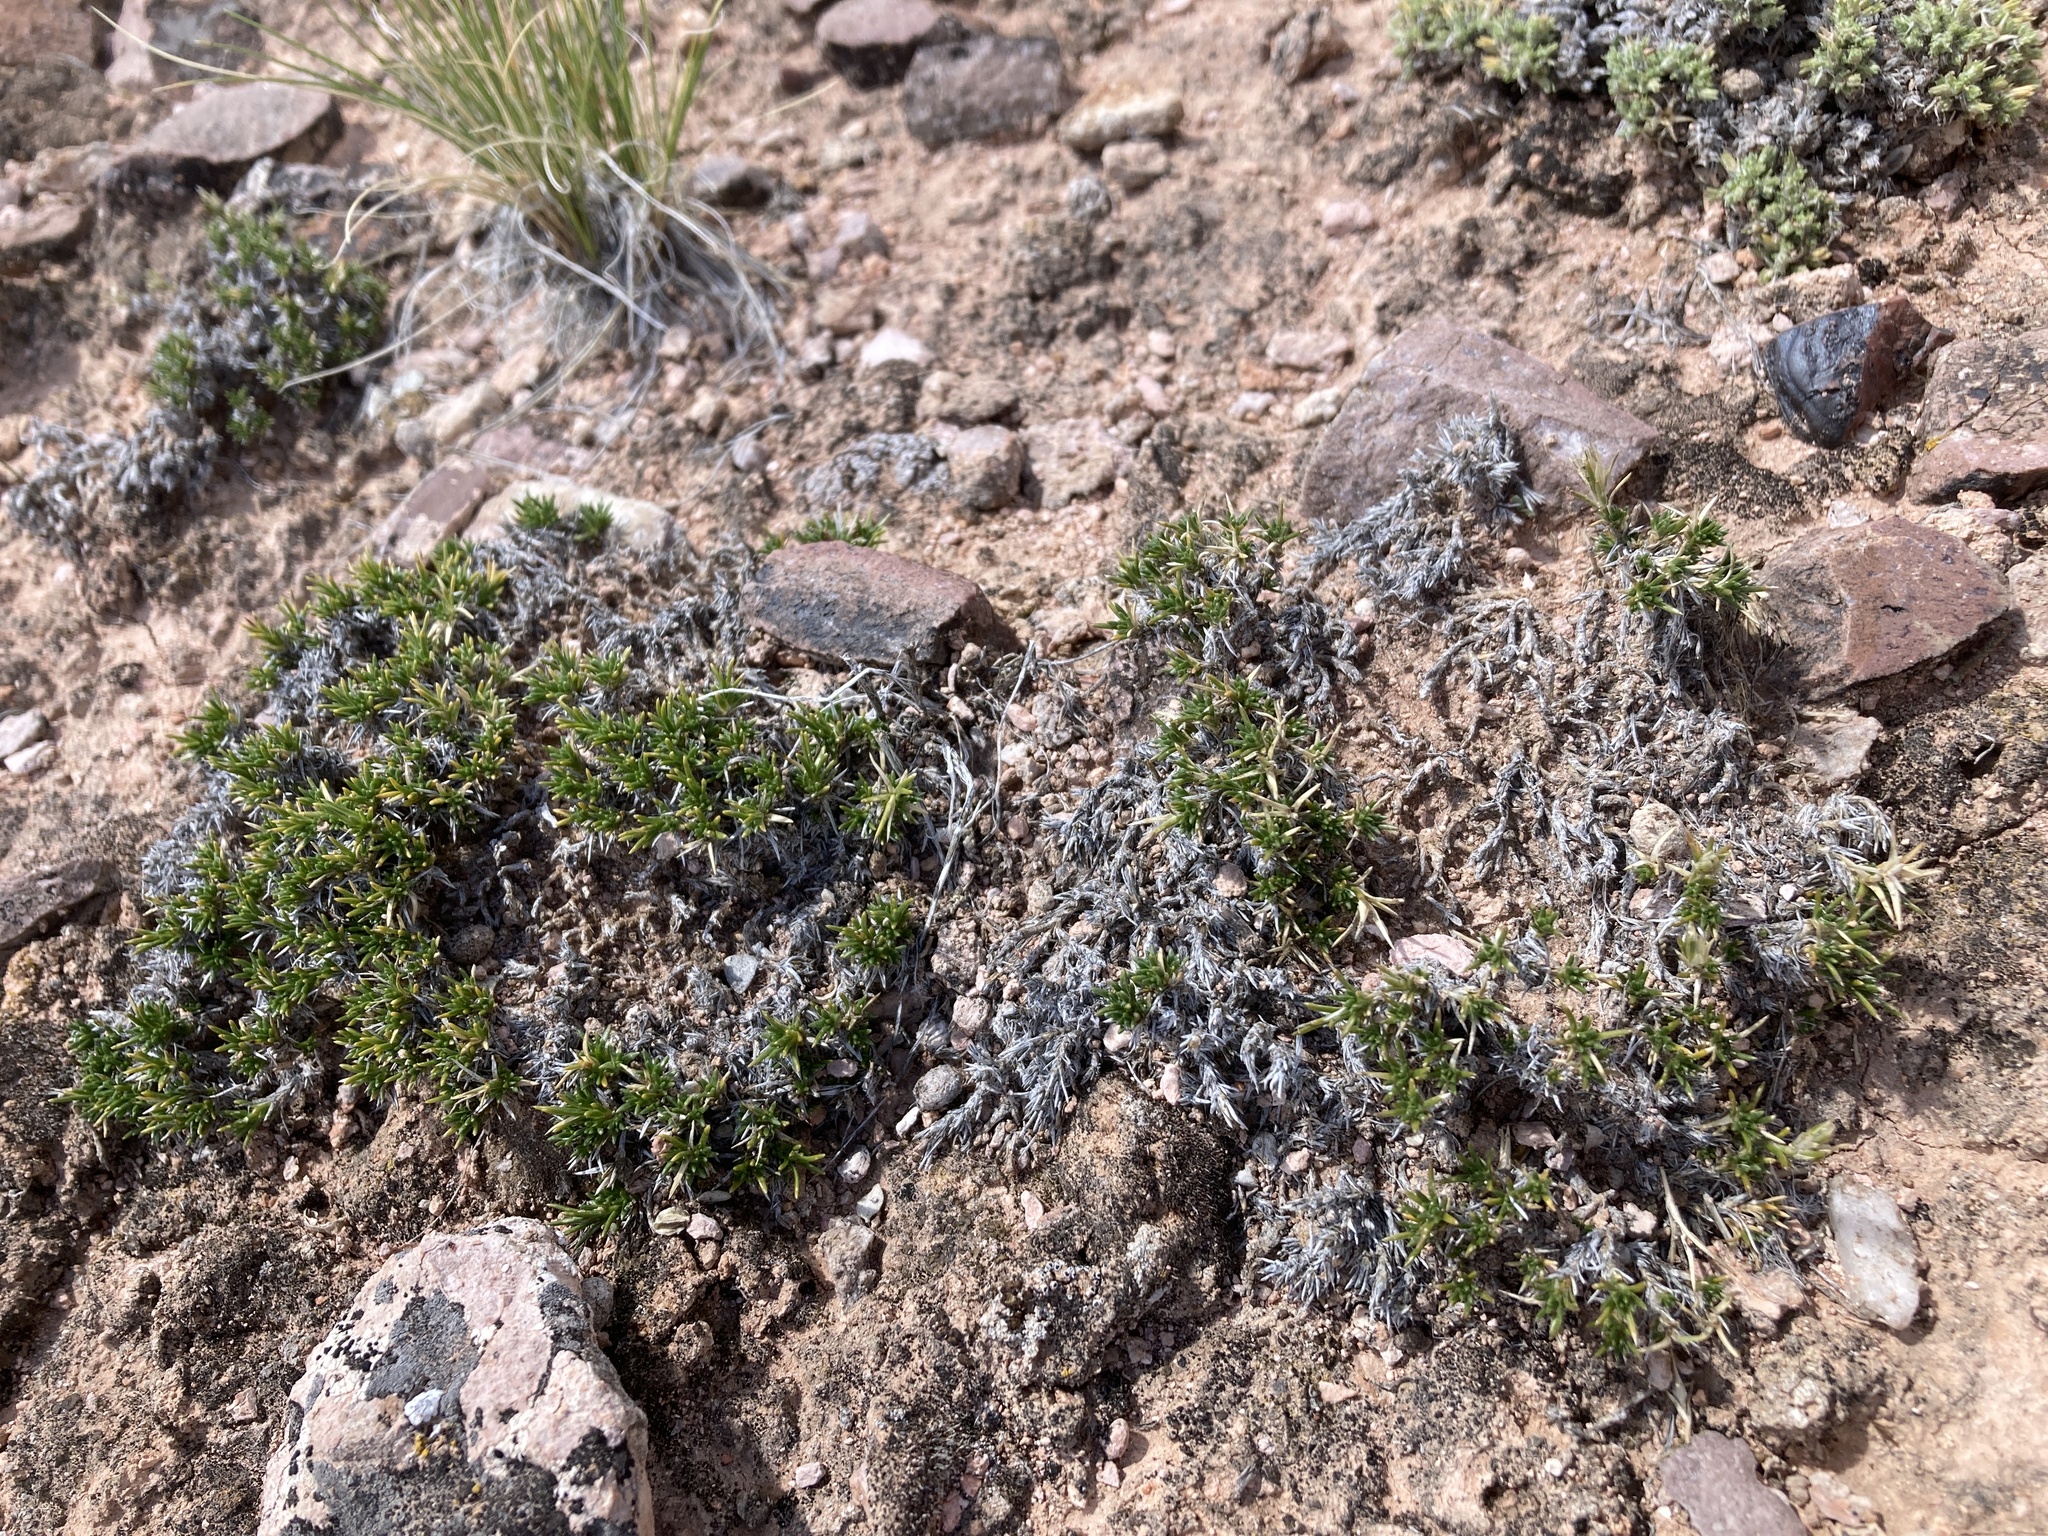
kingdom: Plantae
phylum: Tracheophyta
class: Magnoliopsida
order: Ericales
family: Polemoniaceae
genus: Linanthus
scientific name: Linanthus caespitosus
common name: Mat prickly phlox
